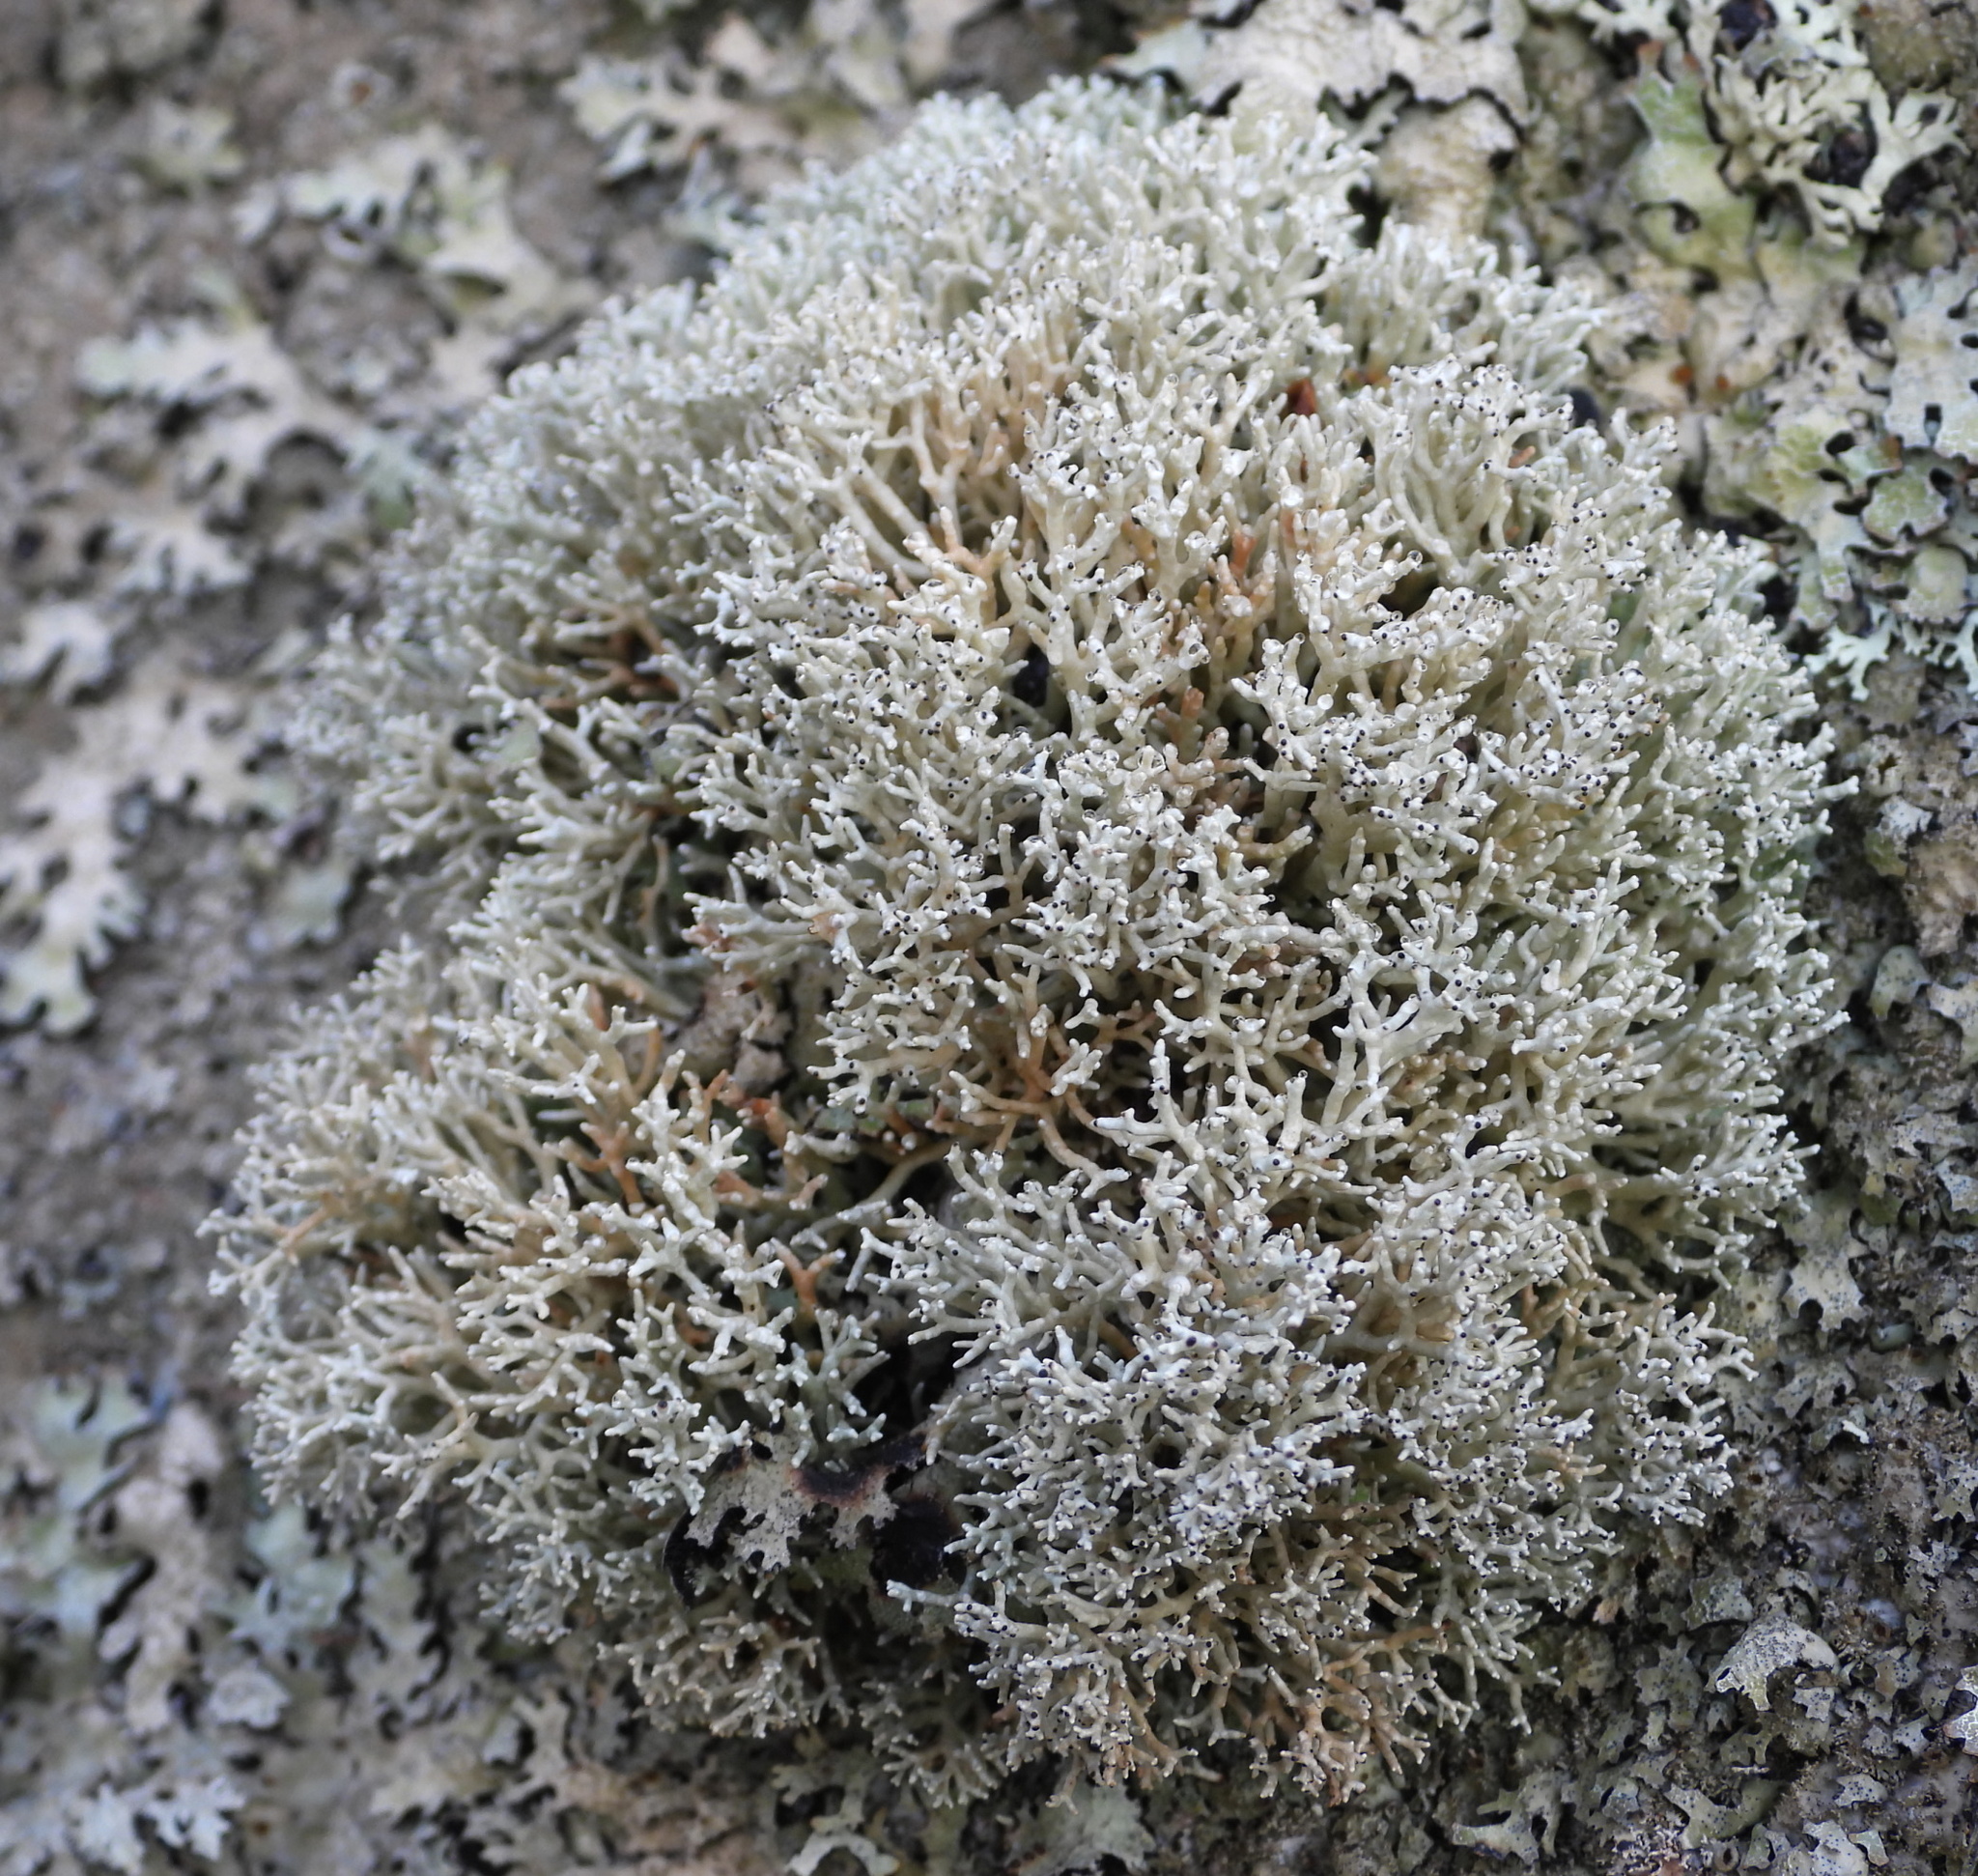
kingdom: Fungi
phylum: Ascomycota
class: Lecanoromycetes
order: Lecanorales
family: Sphaerophoraceae
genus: Sphaerophorus
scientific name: Sphaerophorus fragilis
